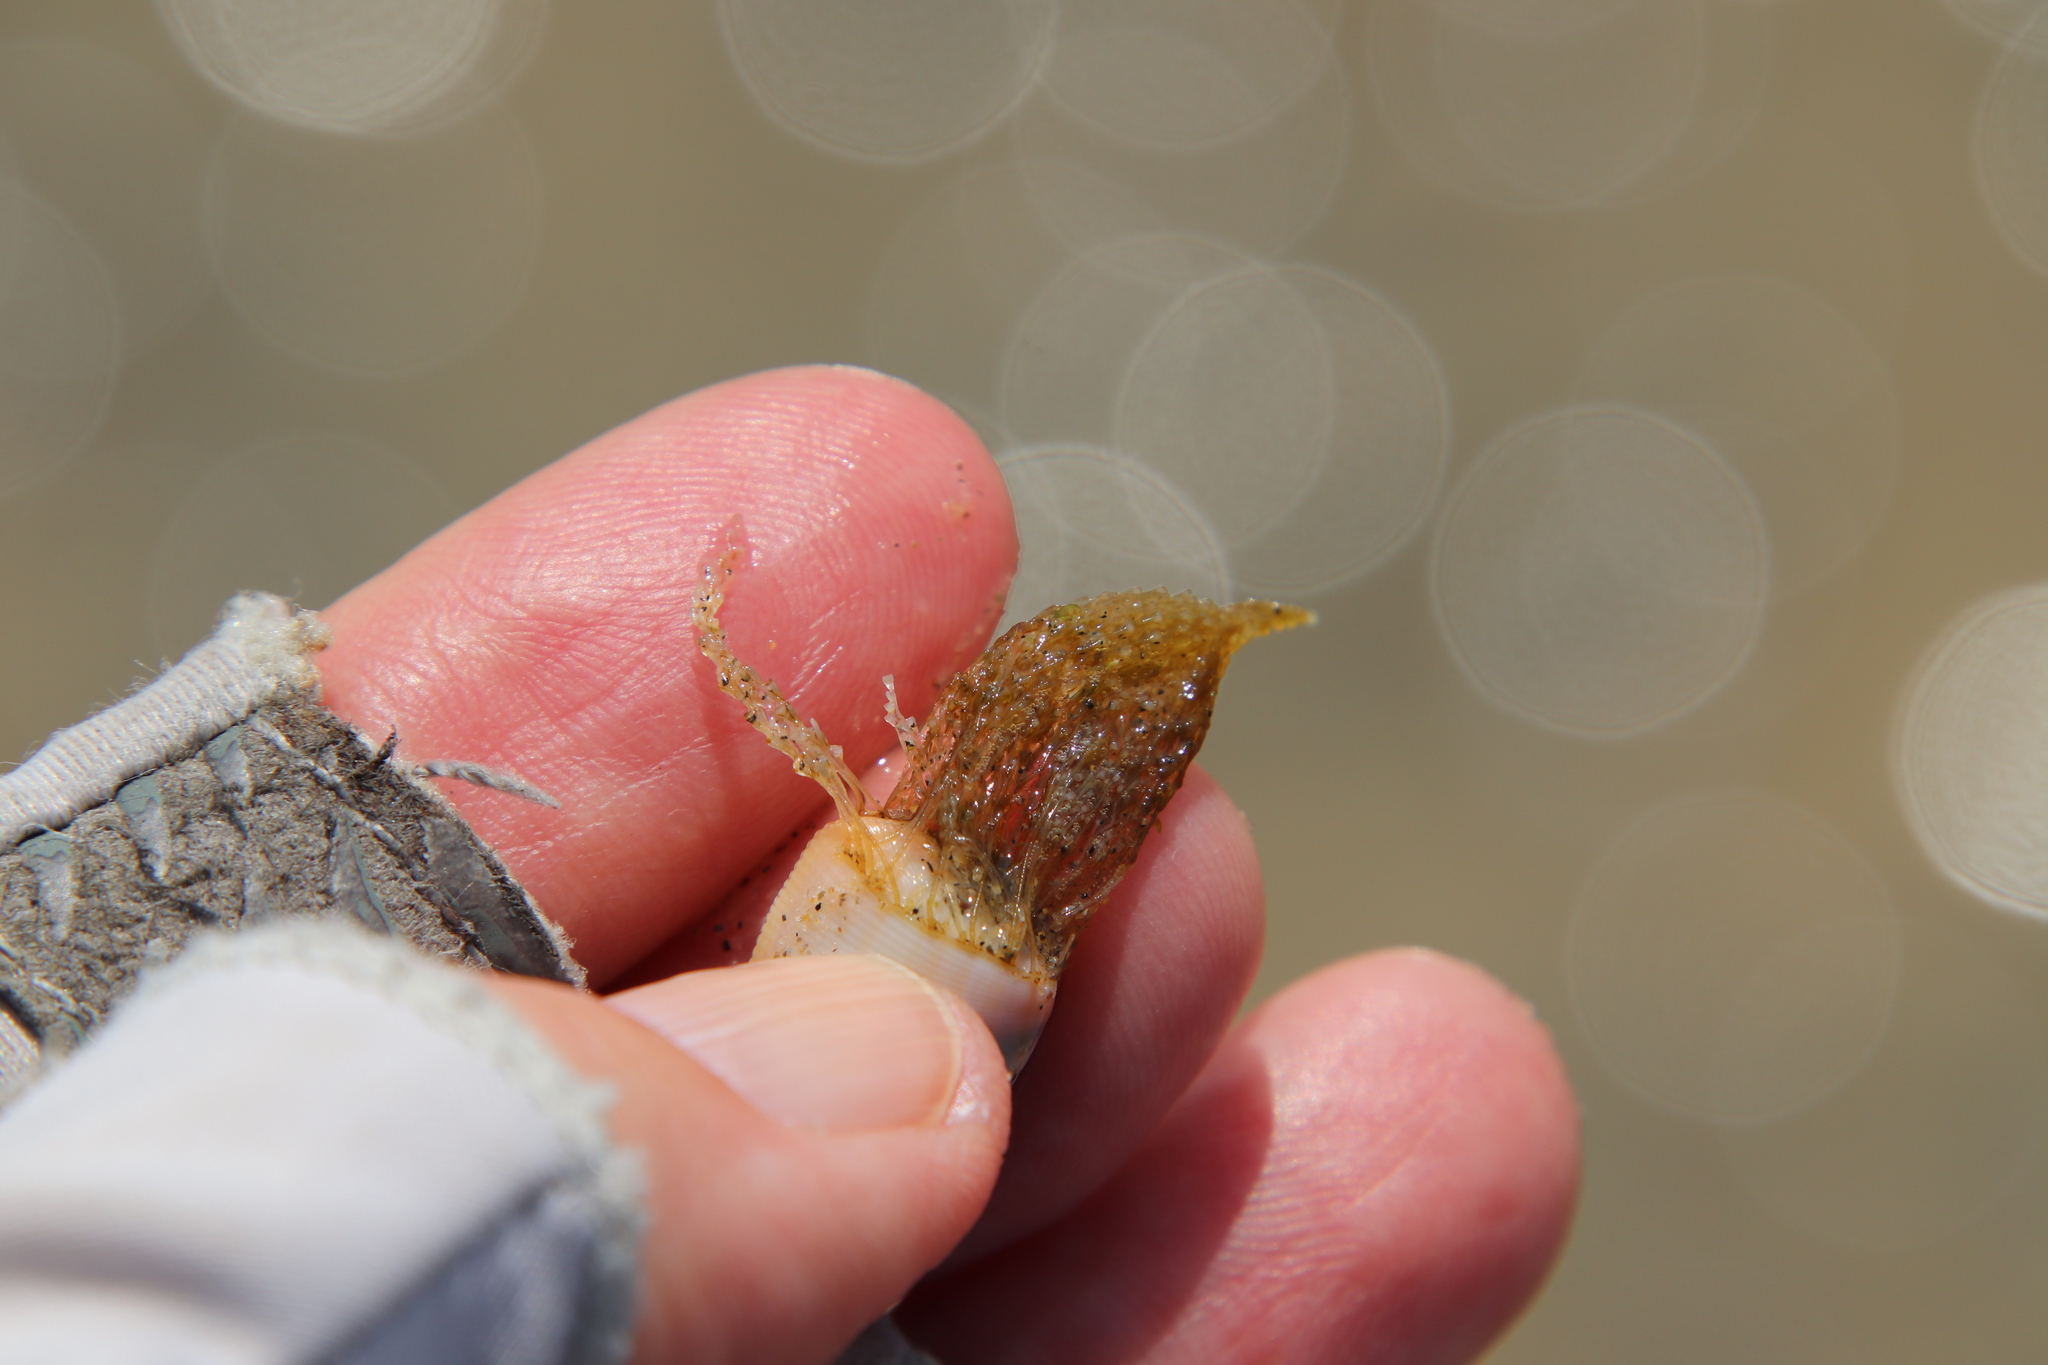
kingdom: Animalia
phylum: Cnidaria
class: Hydrozoa
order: Leptothecata
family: Lovenellidae
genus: Eucheilota
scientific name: Eucheilota bakeri
